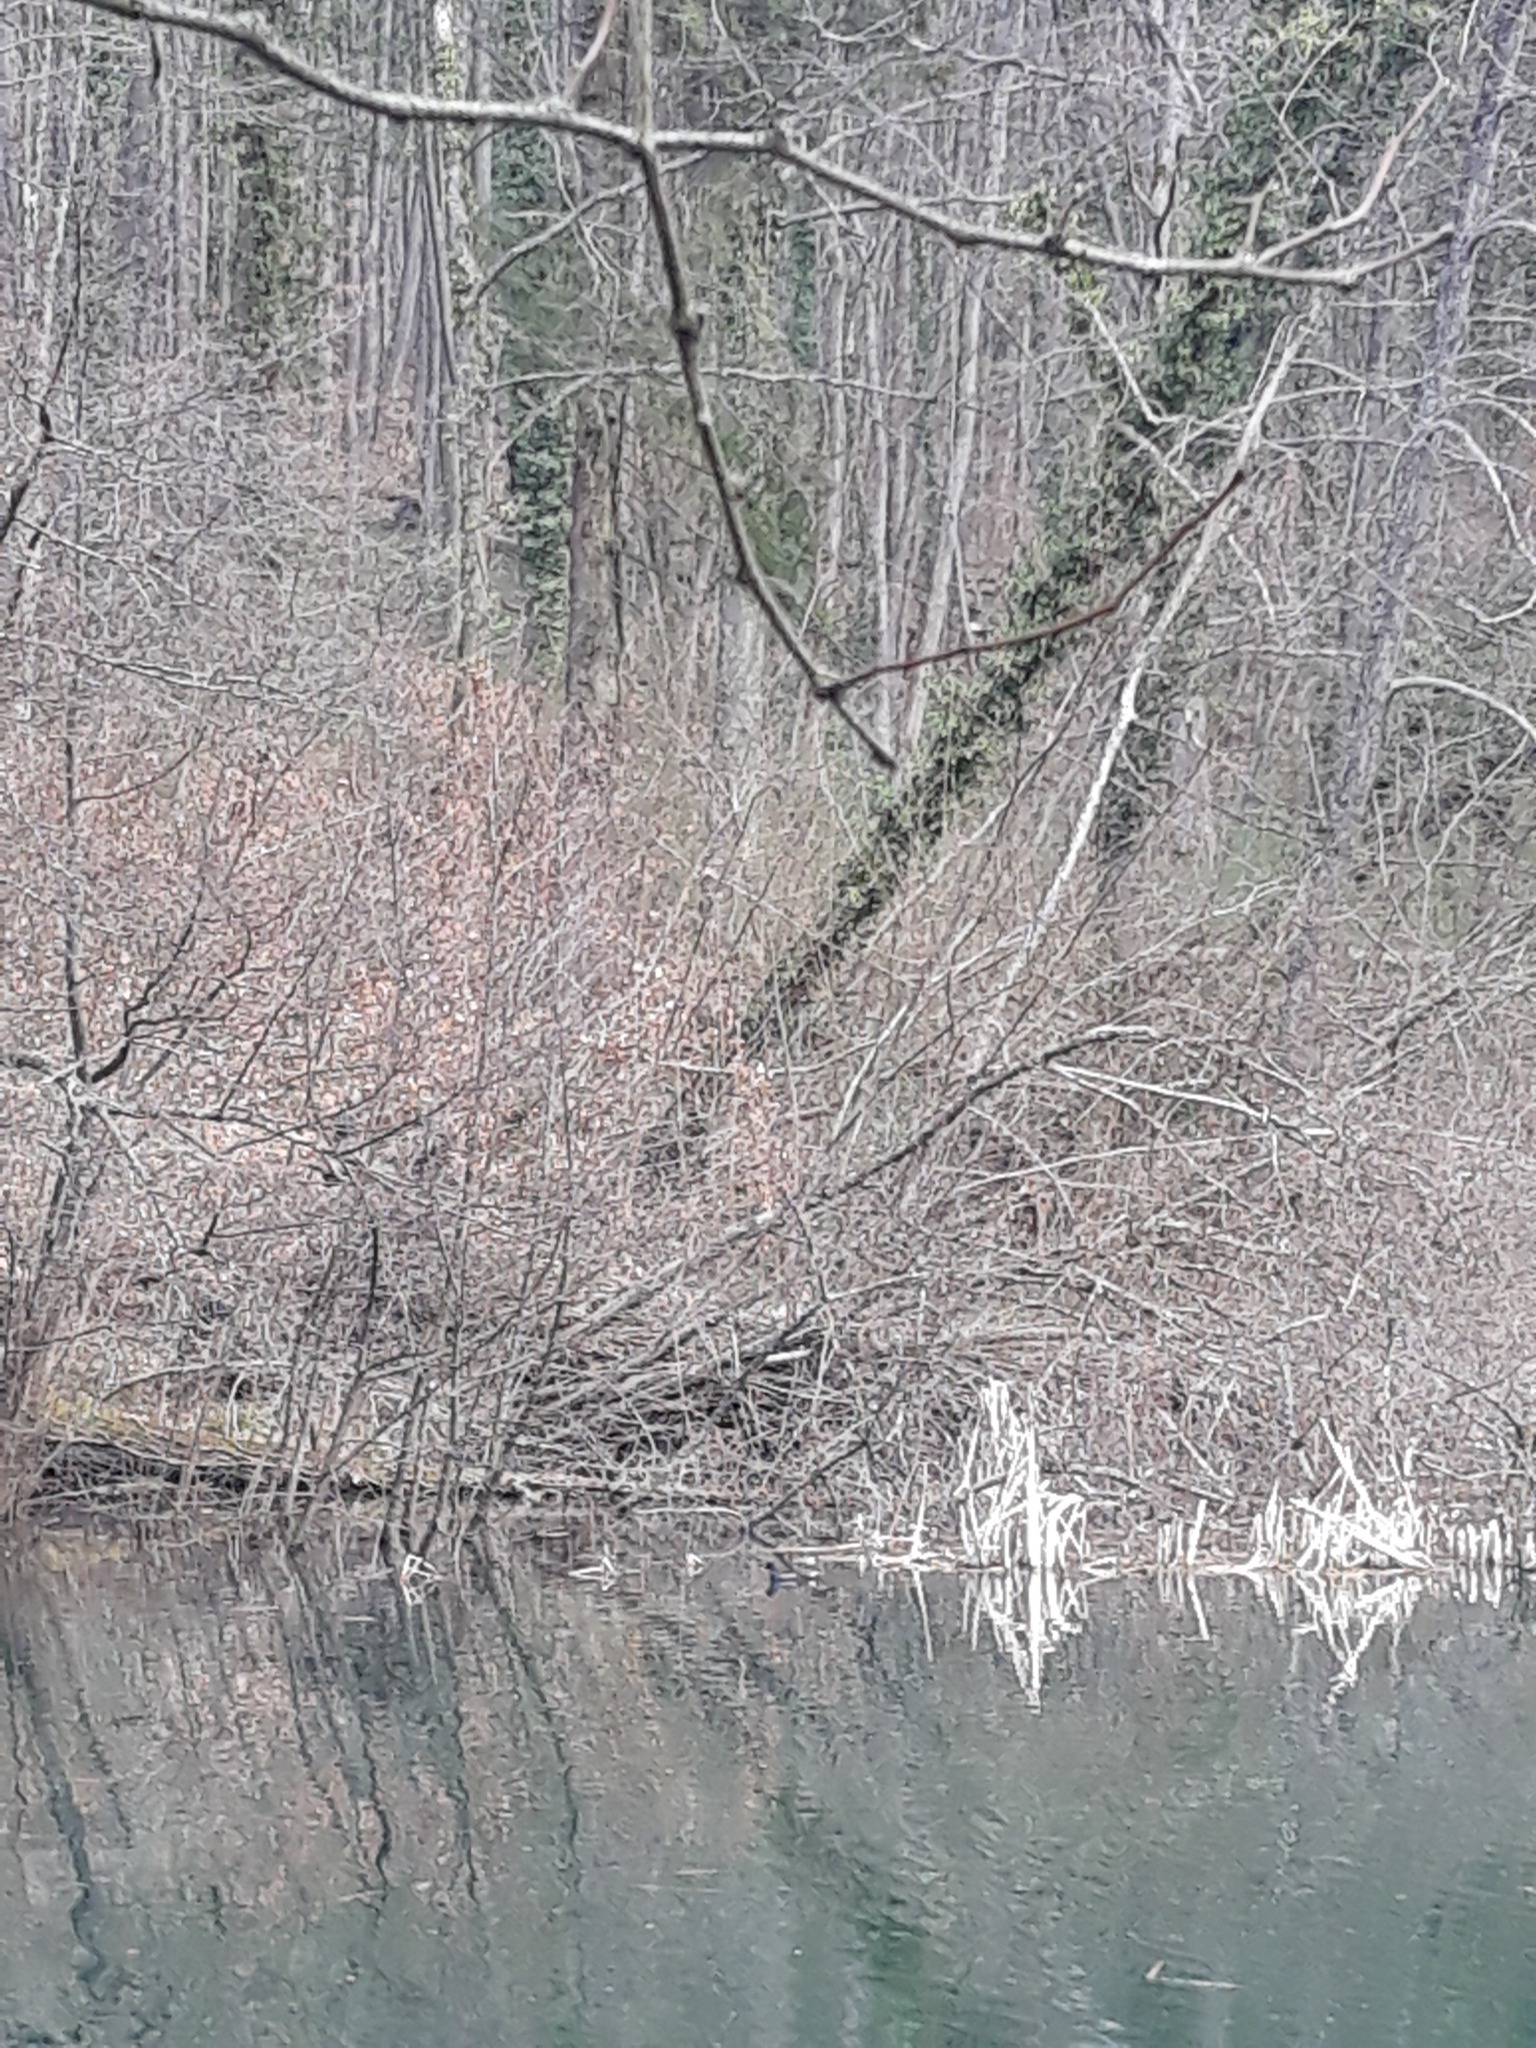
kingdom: Animalia
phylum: Chordata
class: Aves
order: Gruiformes
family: Rallidae
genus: Gallinula
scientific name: Gallinula chloropus
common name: Common moorhen
